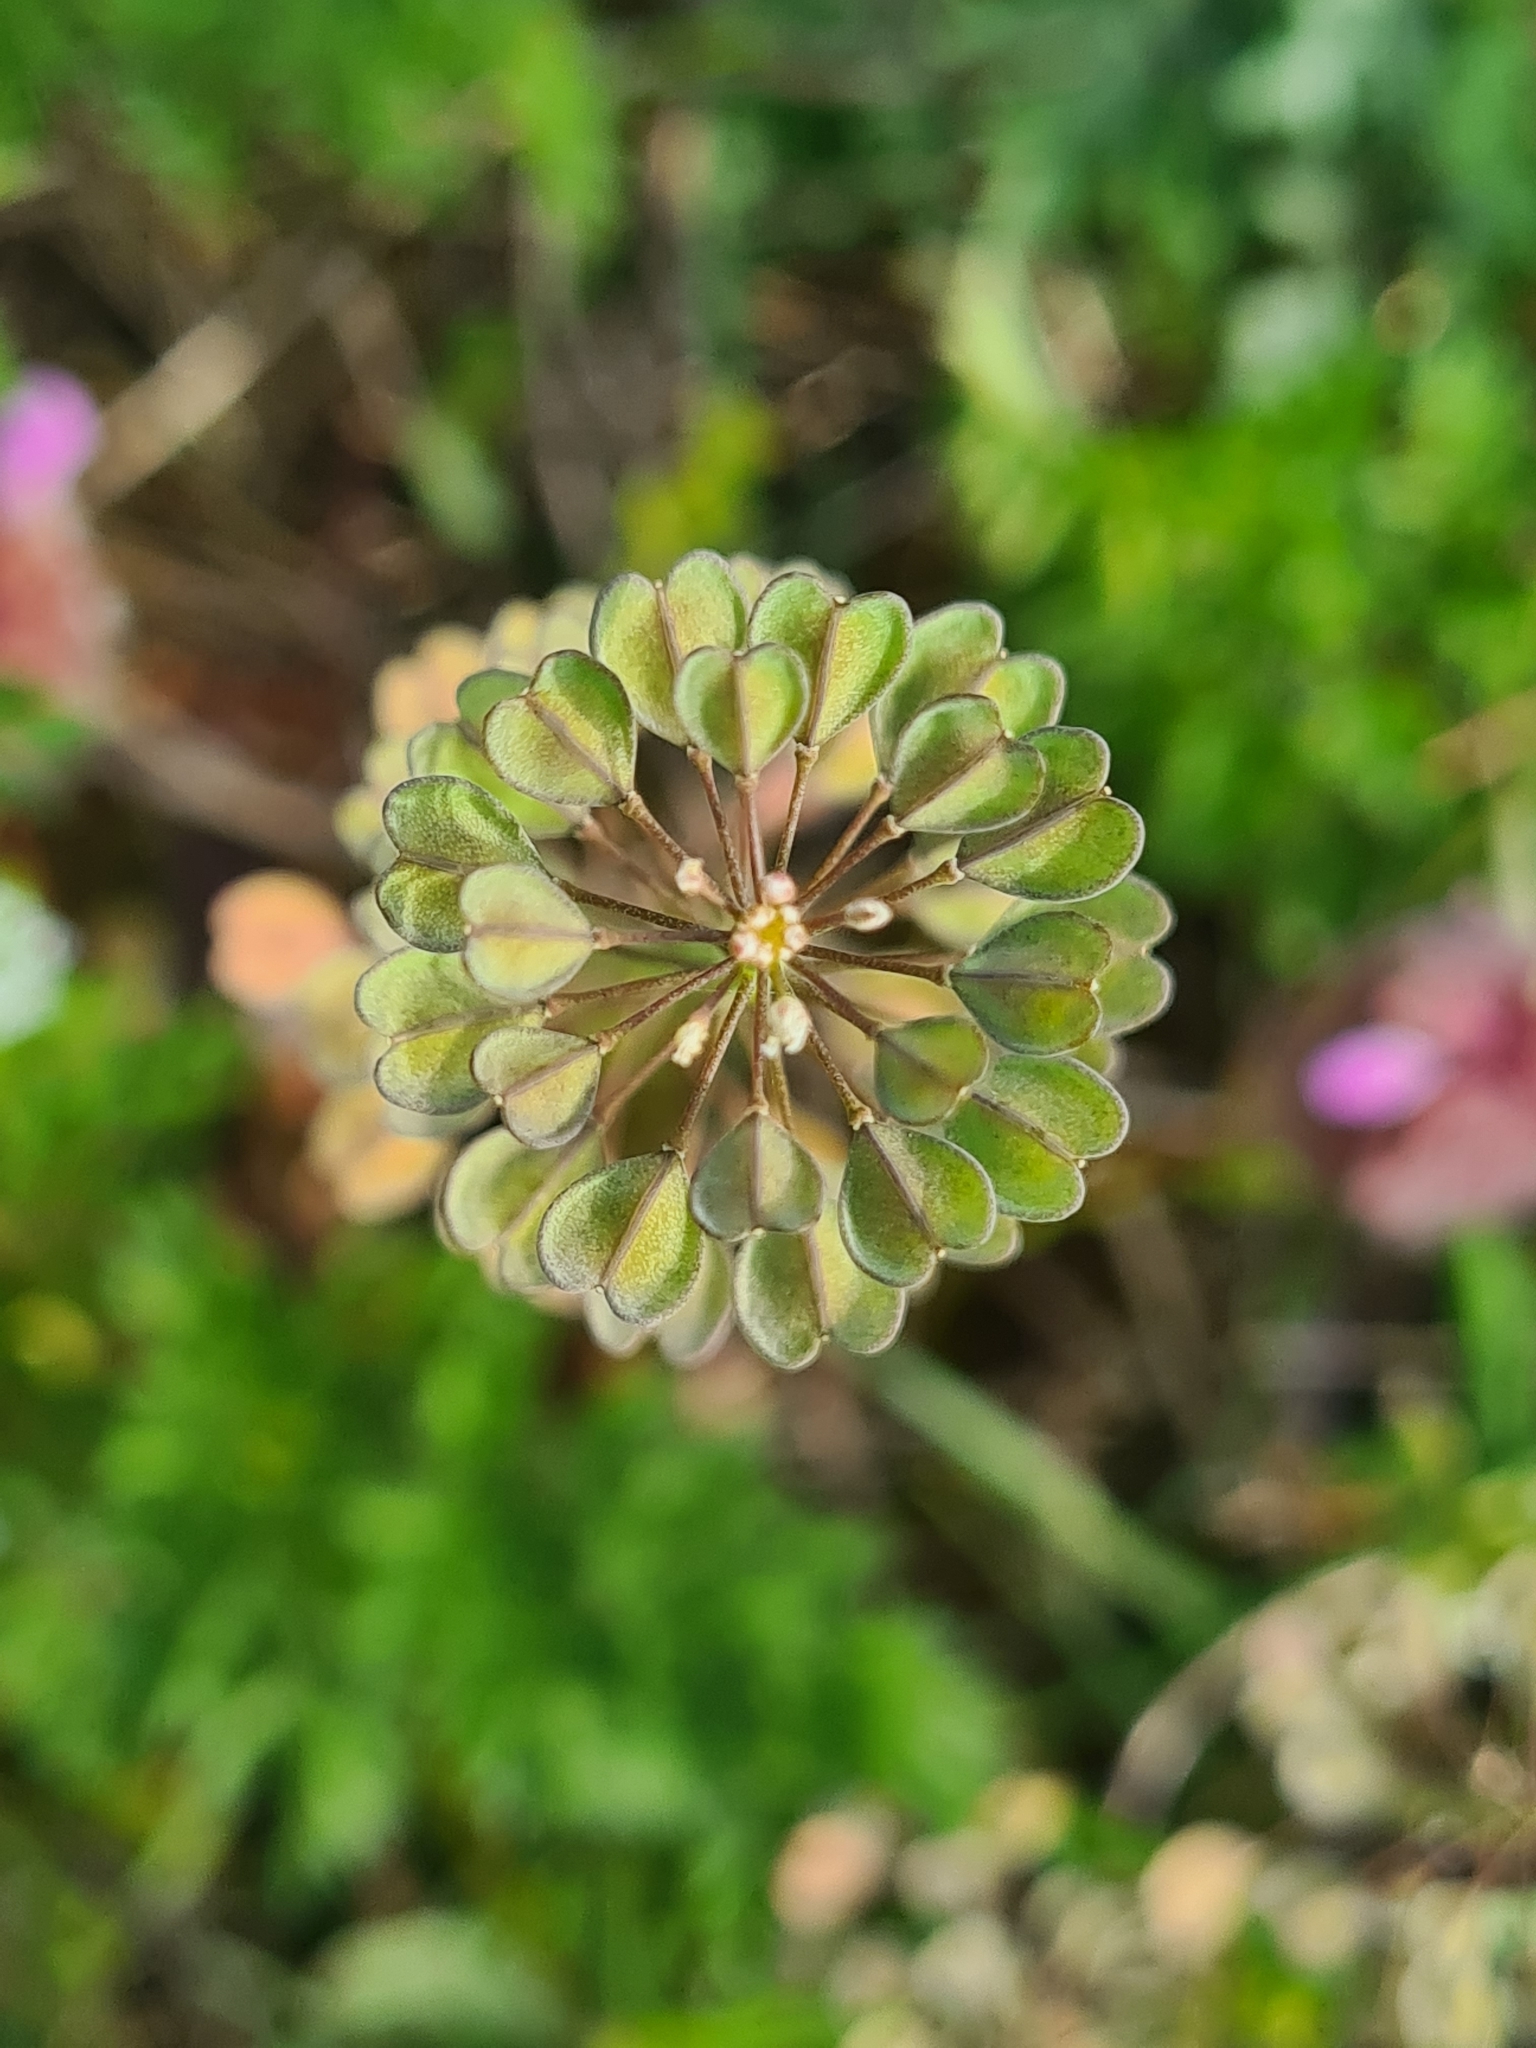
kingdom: Plantae
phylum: Tracheophyta
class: Magnoliopsida
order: Brassicales
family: Brassicaceae
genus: Noccaea
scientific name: Noccaea perfoliata
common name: Perfoliate pennycress
